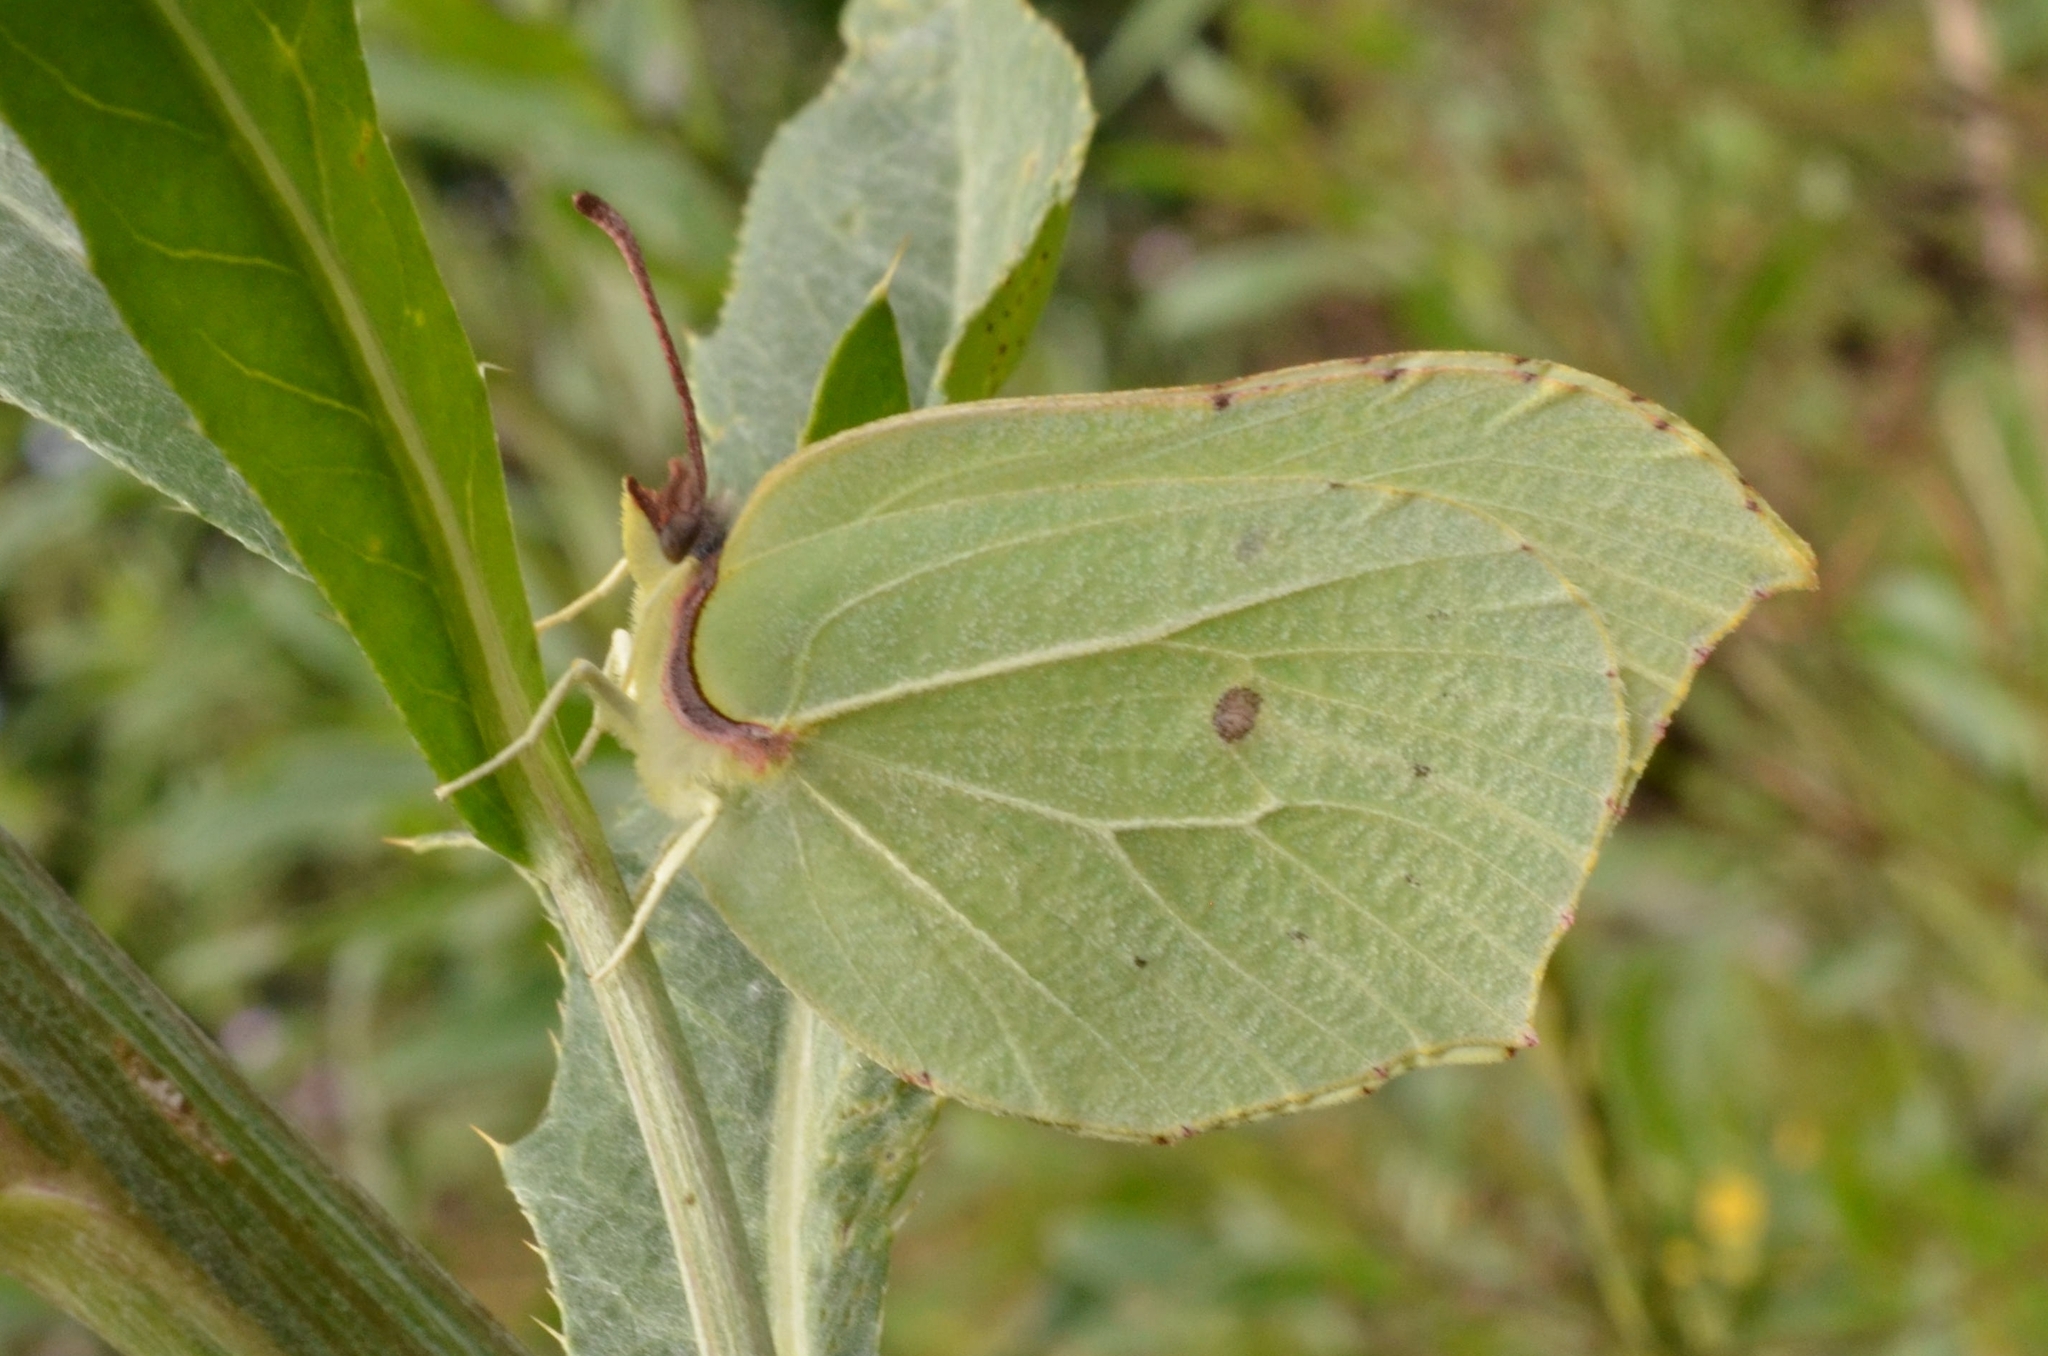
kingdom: Animalia
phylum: Arthropoda
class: Insecta
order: Lepidoptera
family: Pieridae
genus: Gonepteryx
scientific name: Gonepteryx rhamni
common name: Brimstone
